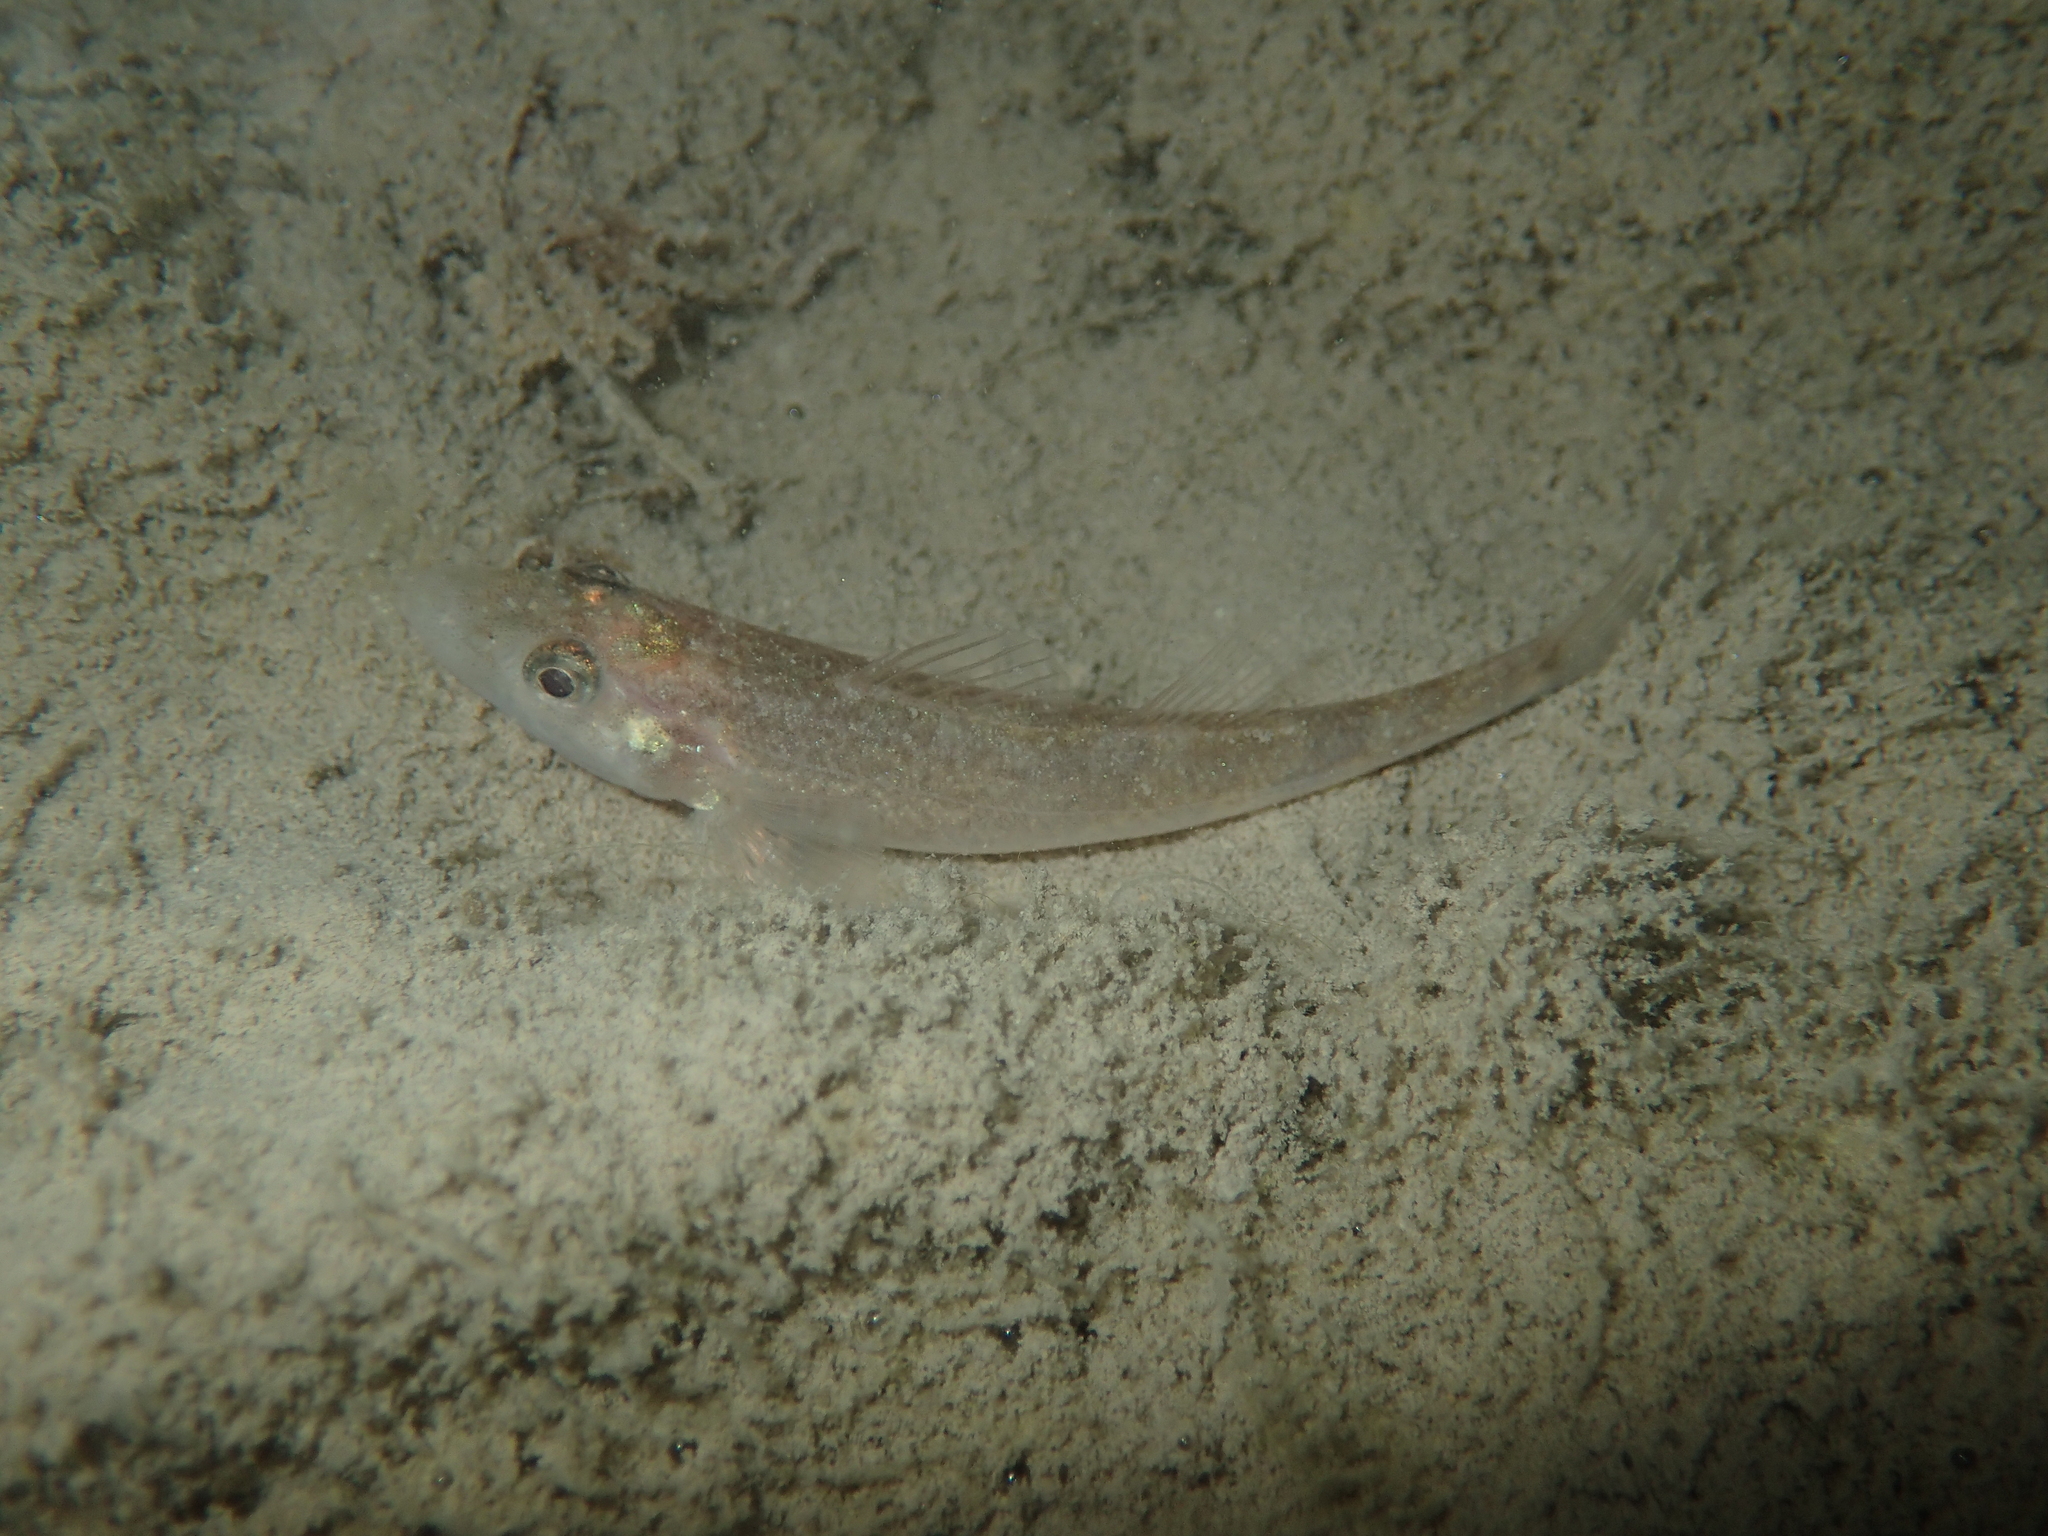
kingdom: Animalia
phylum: Chordata
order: Perciformes
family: Percidae
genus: Zingel
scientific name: Zingel asper
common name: Apron
